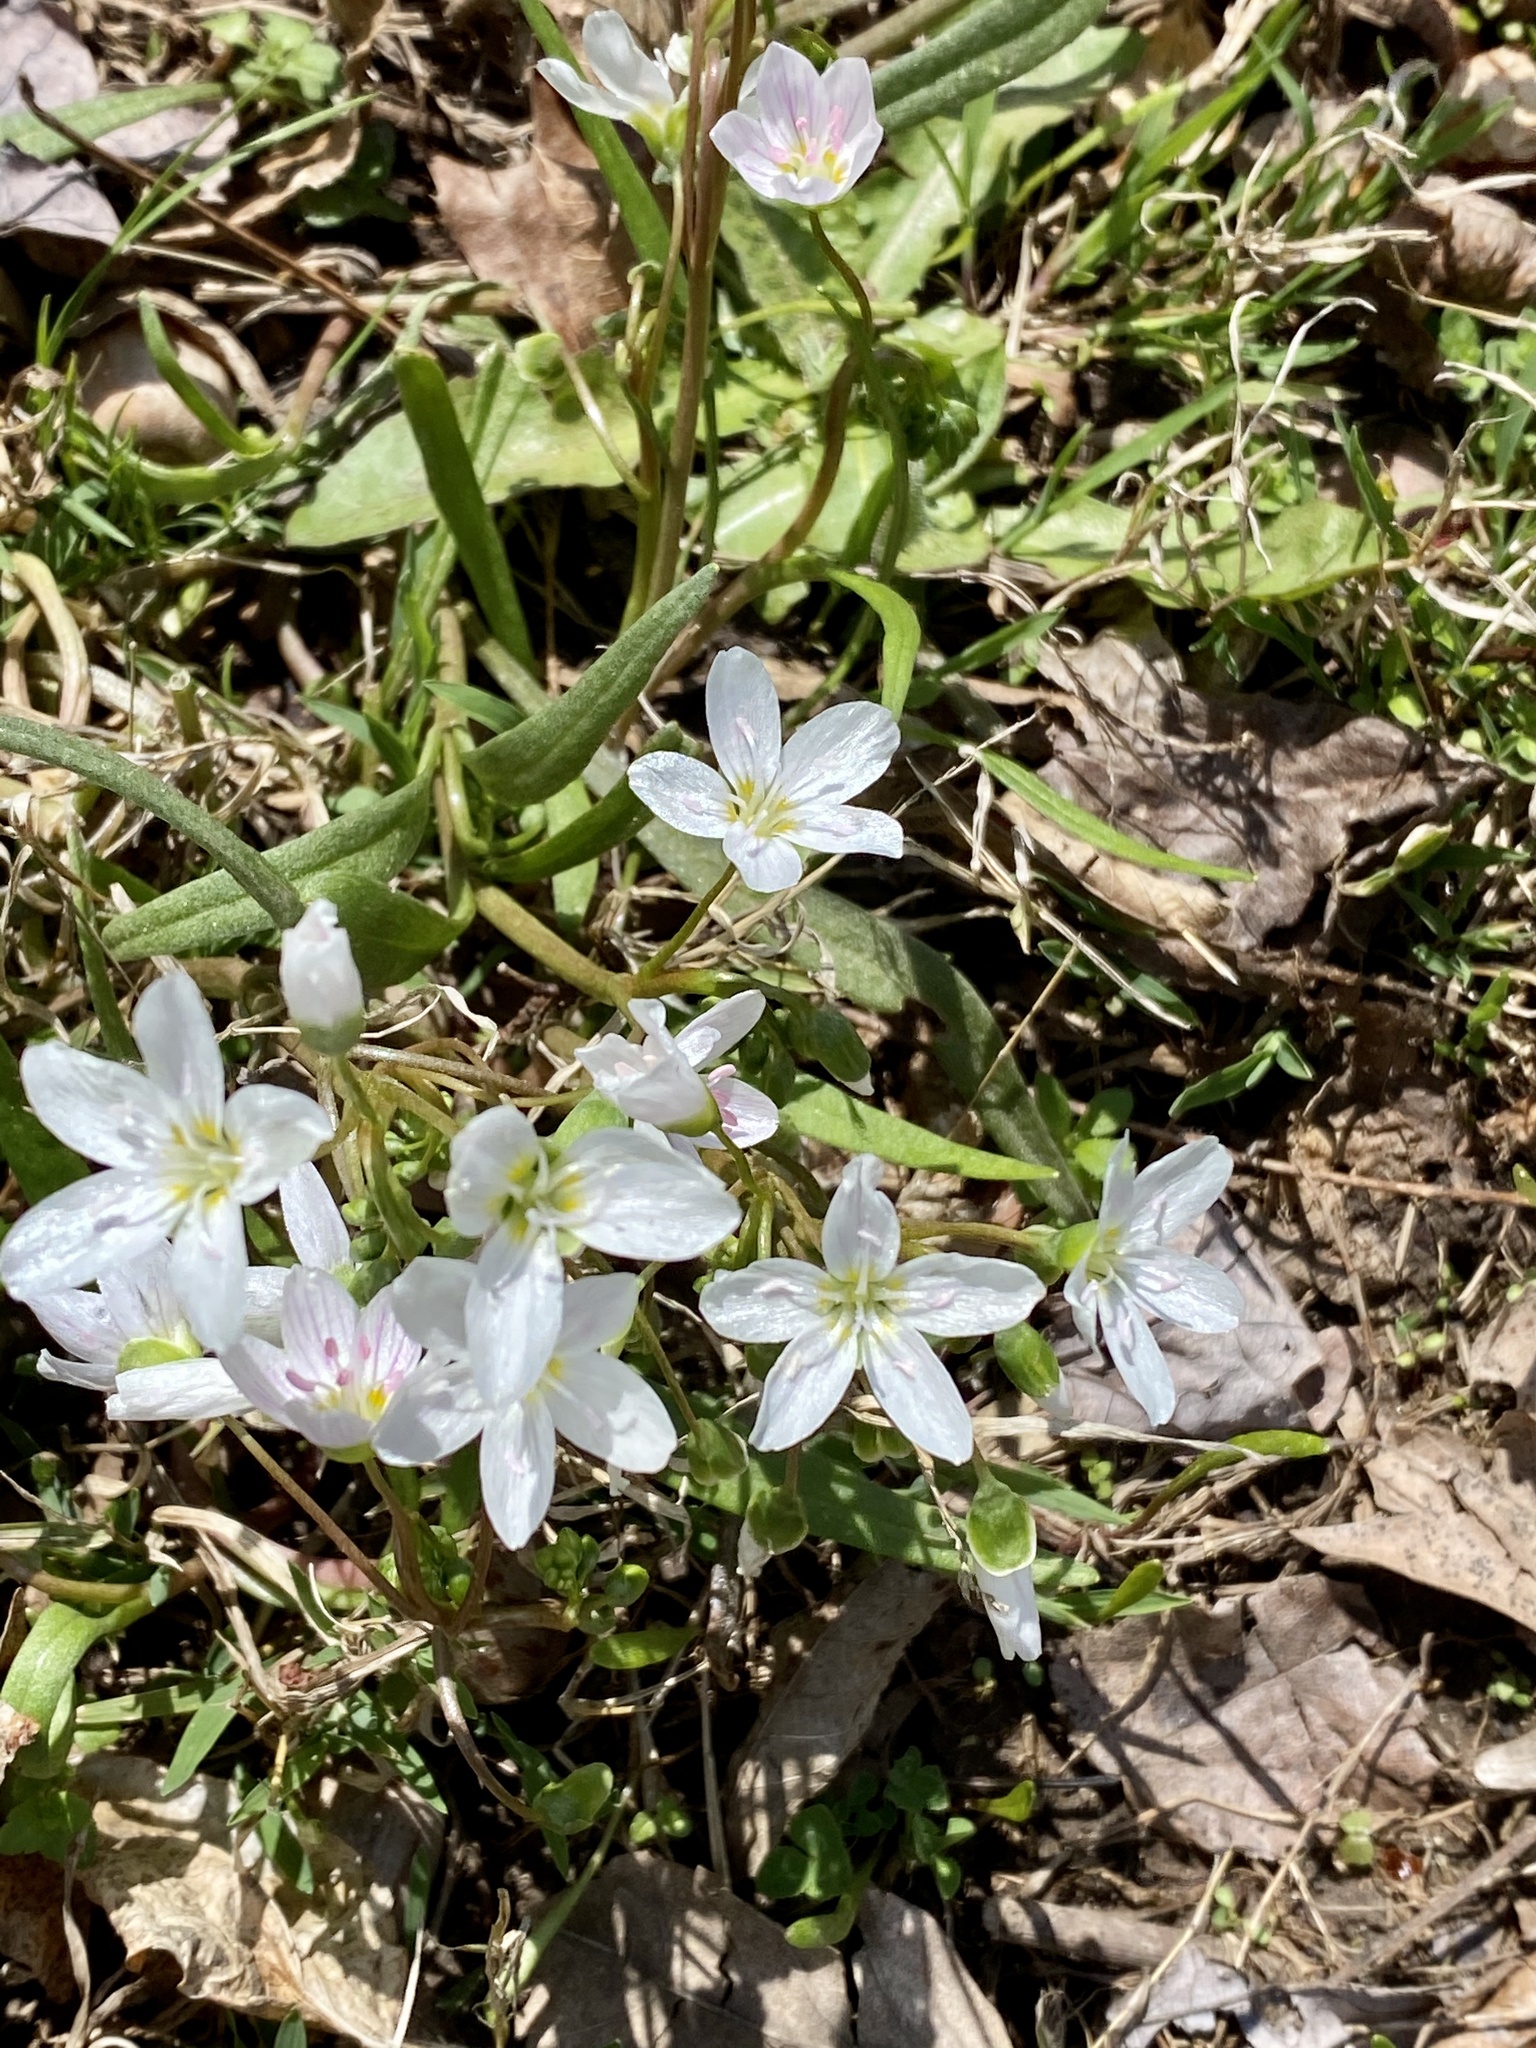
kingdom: Plantae
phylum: Tracheophyta
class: Magnoliopsida
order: Caryophyllales
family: Montiaceae
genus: Claytonia
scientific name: Claytonia virginica
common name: Virginia springbeauty
